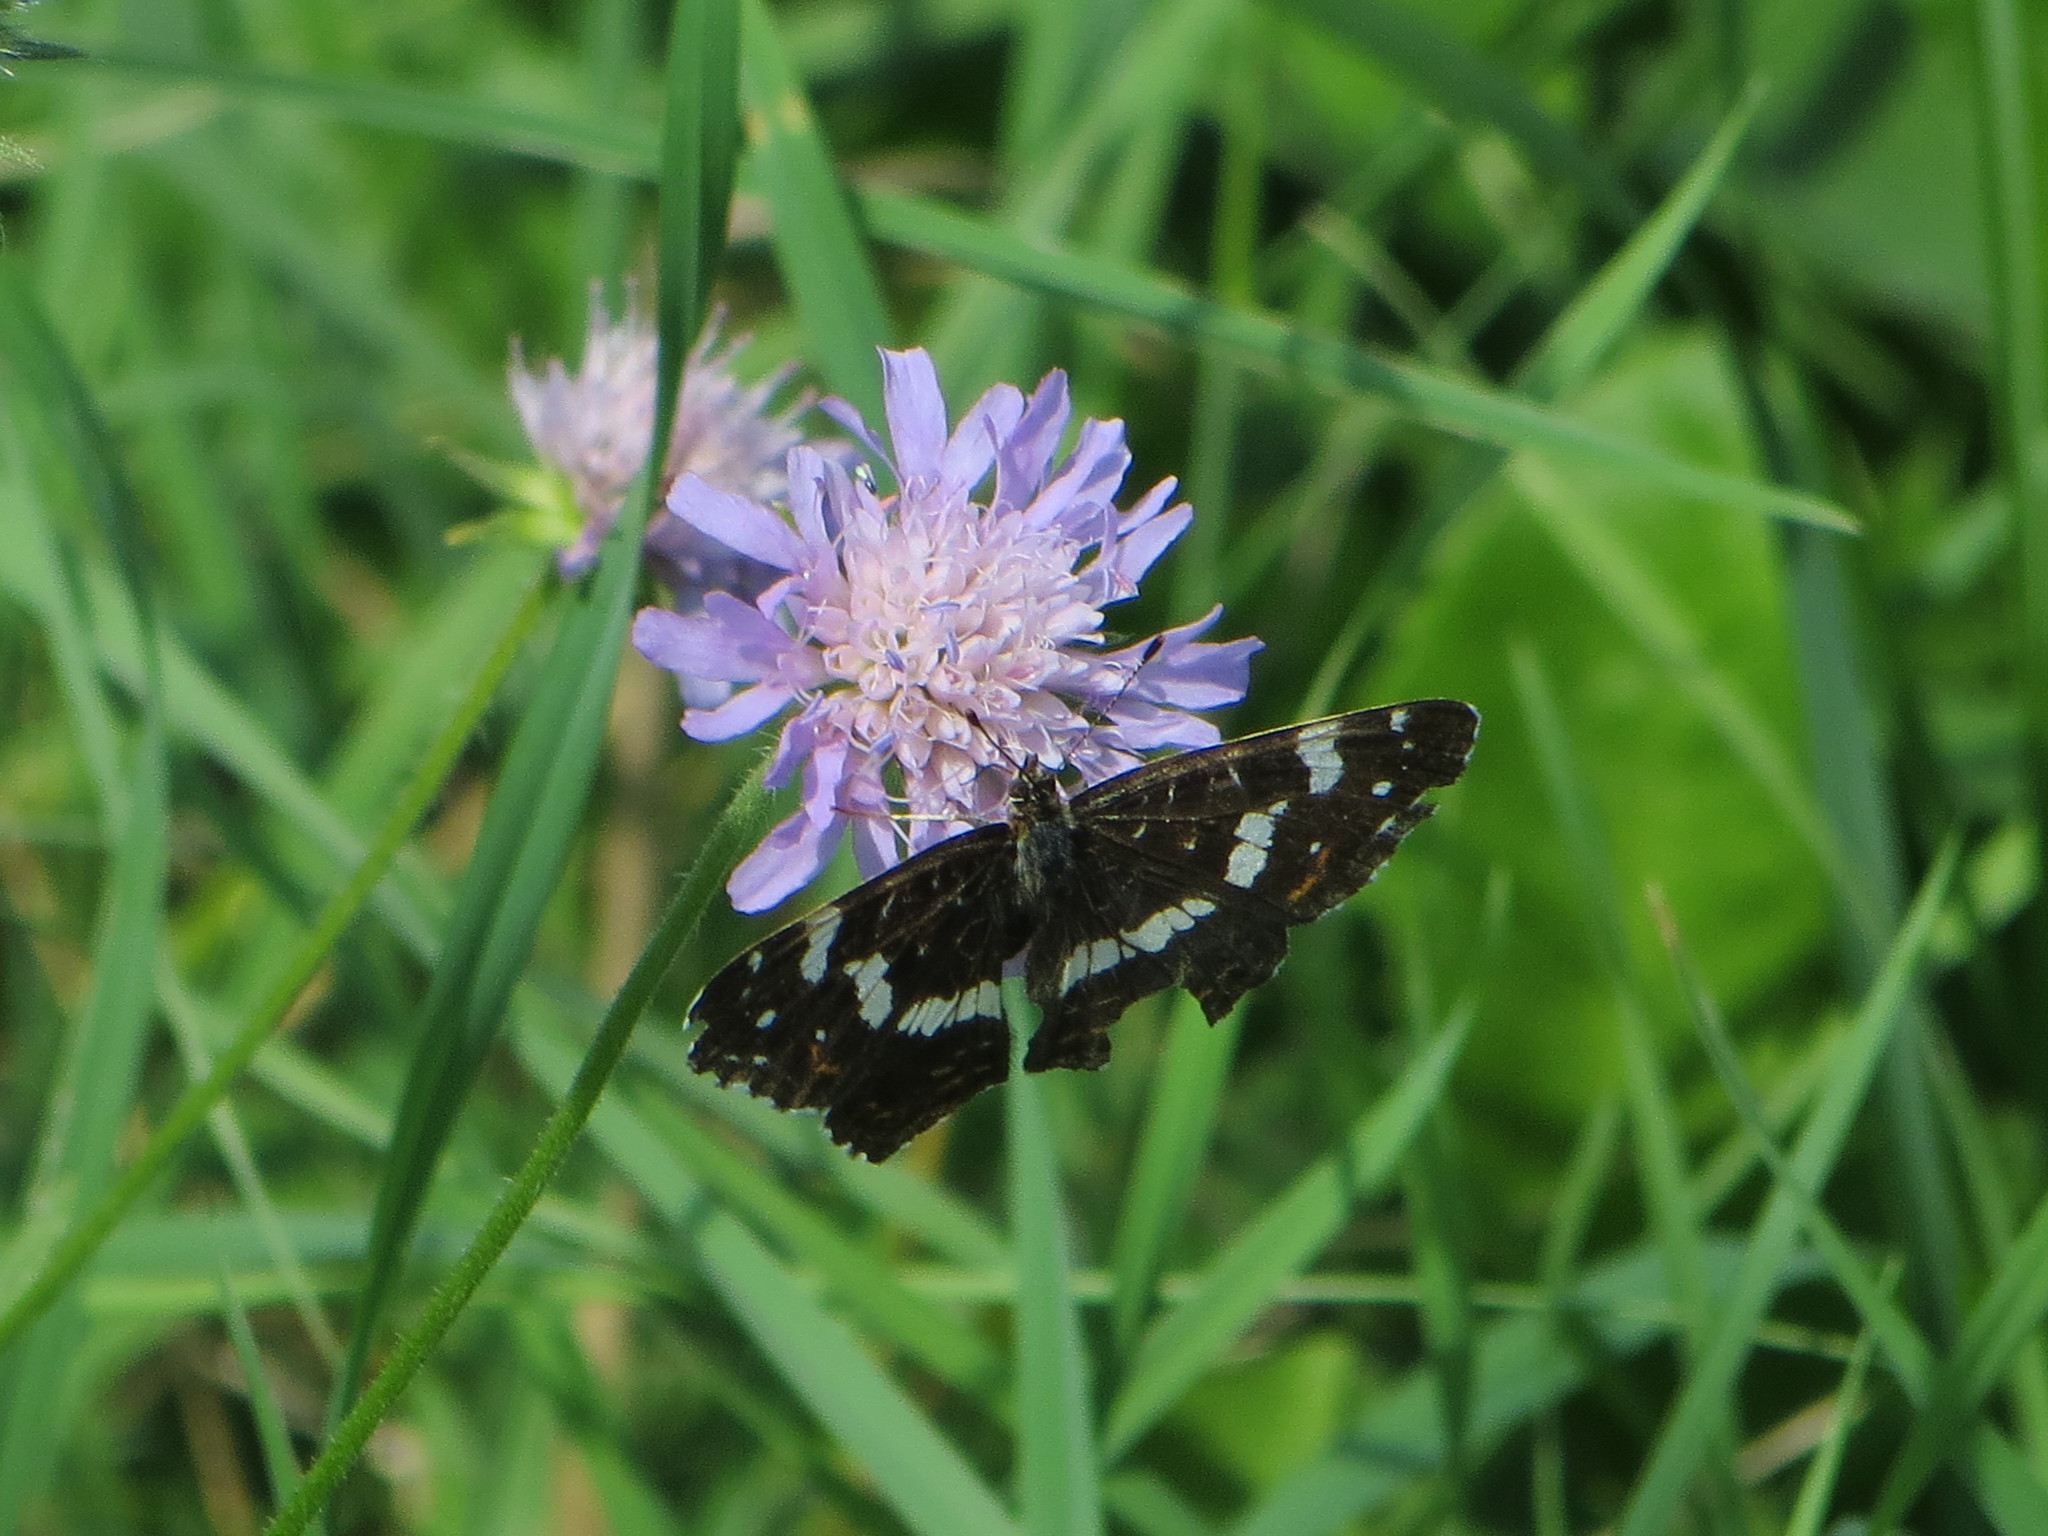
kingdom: Animalia
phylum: Arthropoda
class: Insecta
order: Lepidoptera
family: Nymphalidae
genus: Araschnia
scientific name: Araschnia levana
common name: Map butterfly
